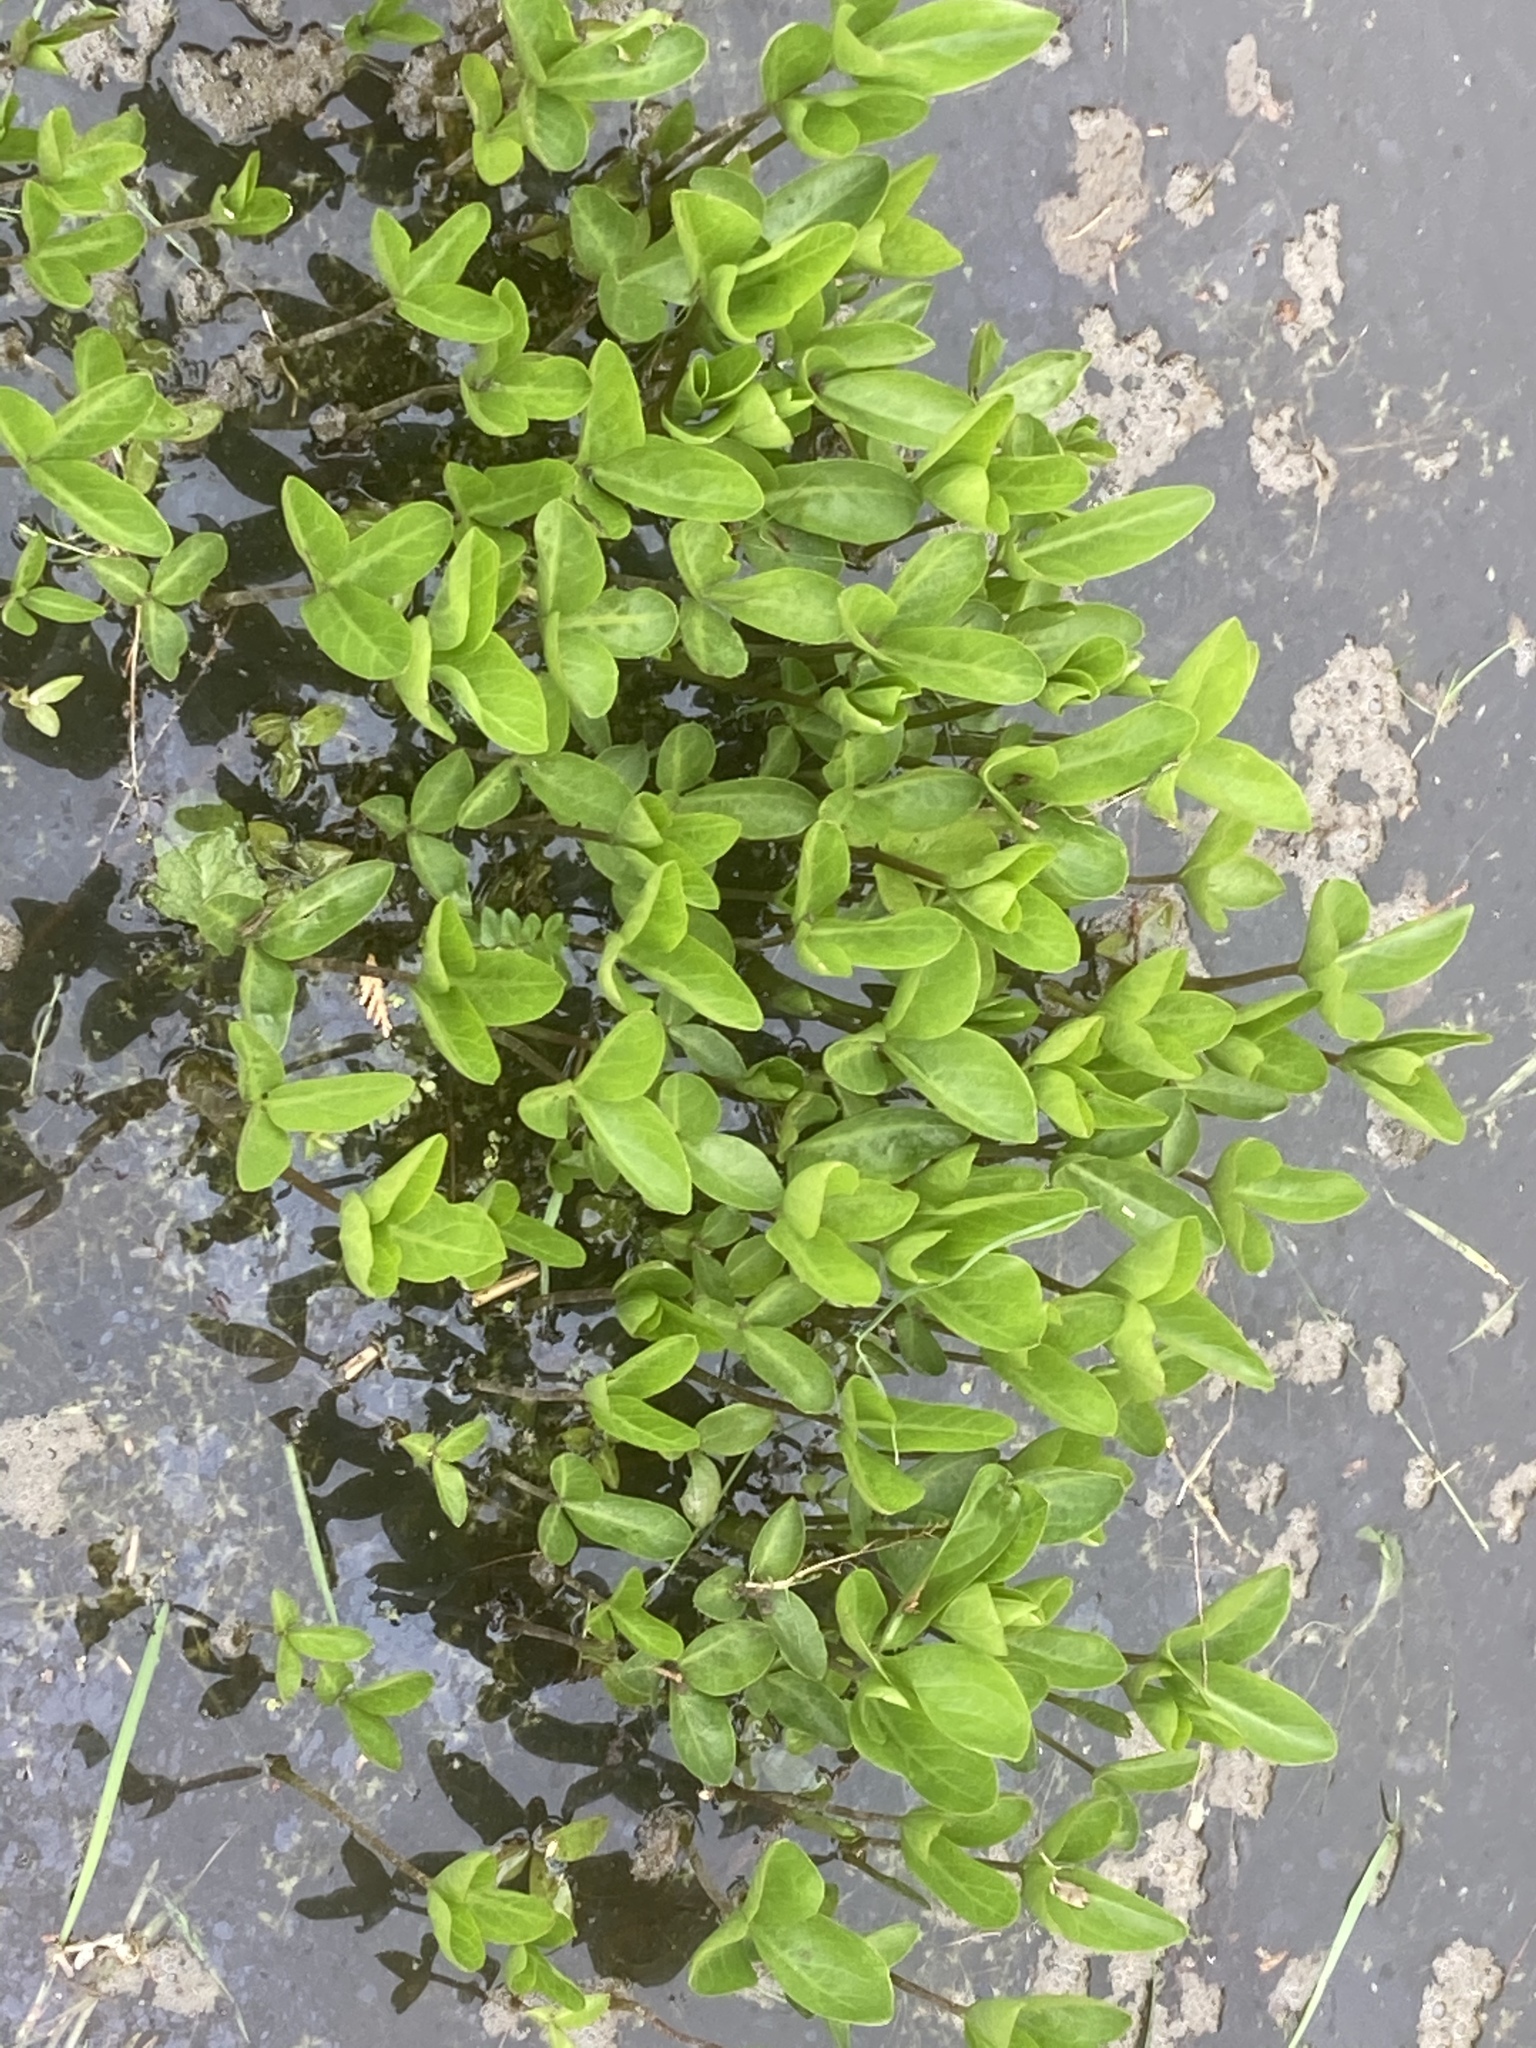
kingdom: Plantae
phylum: Tracheophyta
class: Magnoliopsida
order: Asterales
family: Menyanthaceae
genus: Menyanthes
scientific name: Menyanthes trifoliata
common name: Bogbean
